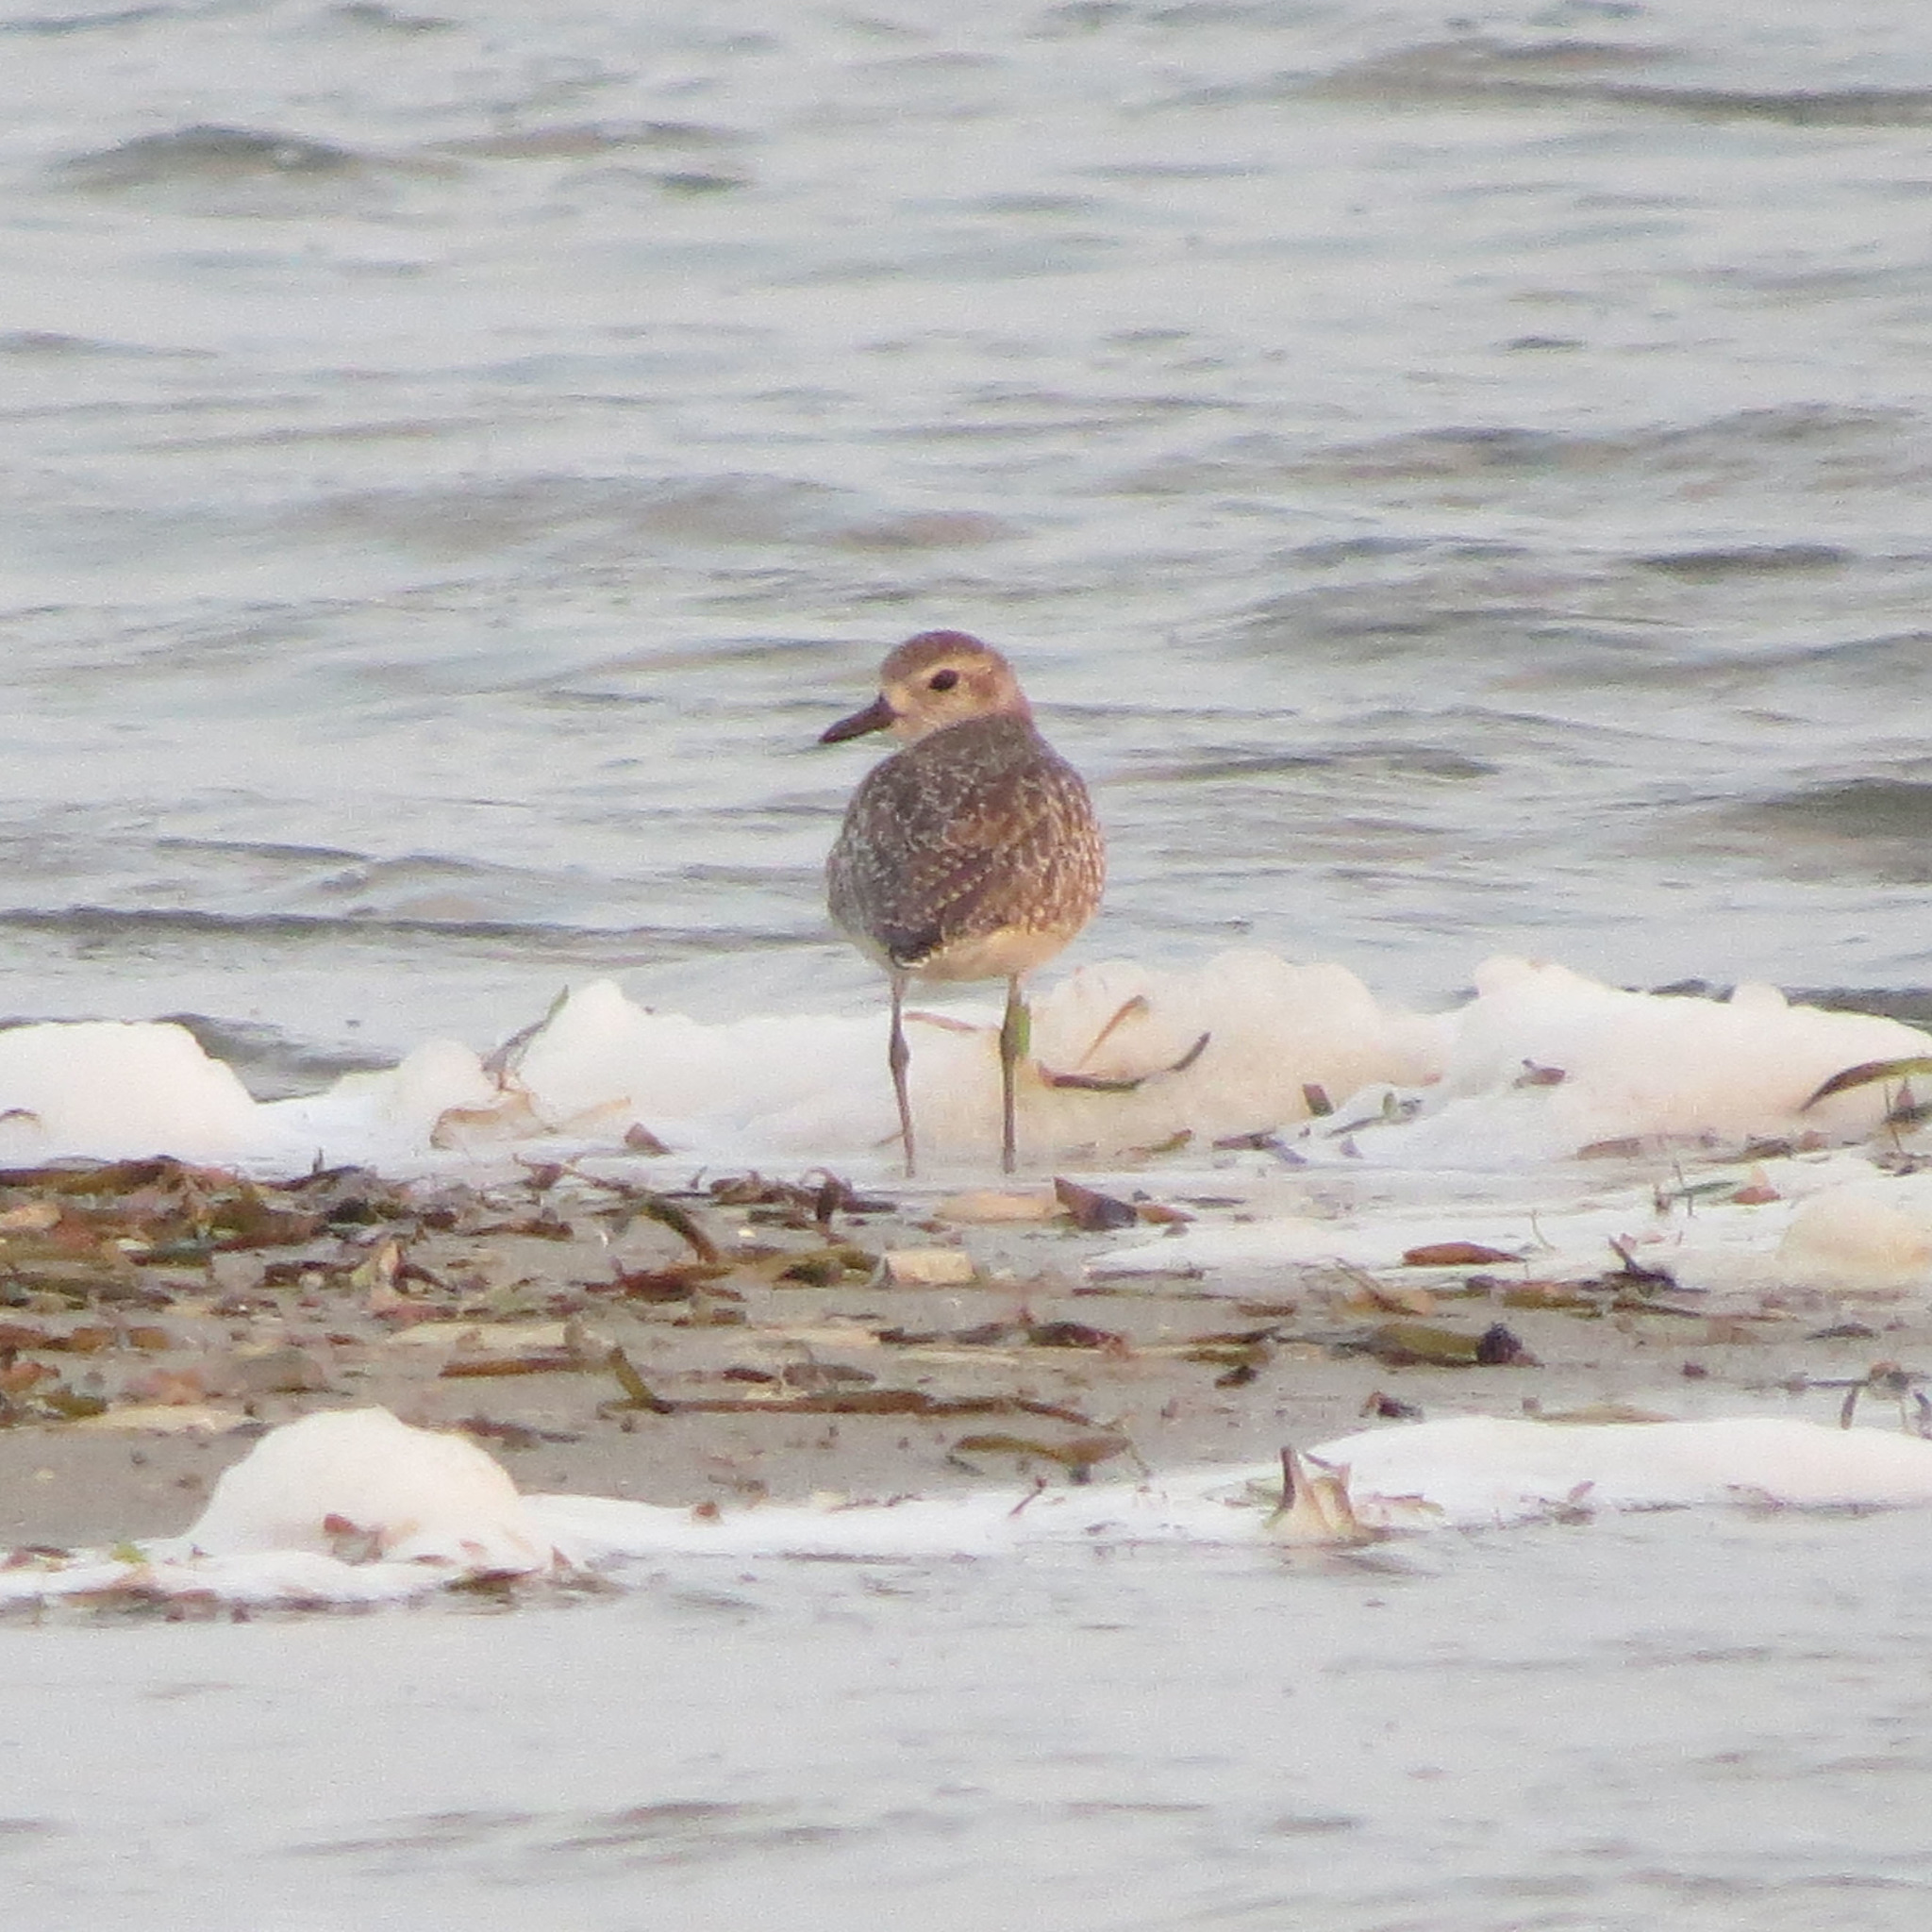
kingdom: Animalia
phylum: Chordata
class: Aves
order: Charadriiformes
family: Charadriidae
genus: Pluvialis
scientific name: Pluvialis fulva
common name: Pacific golden plover
